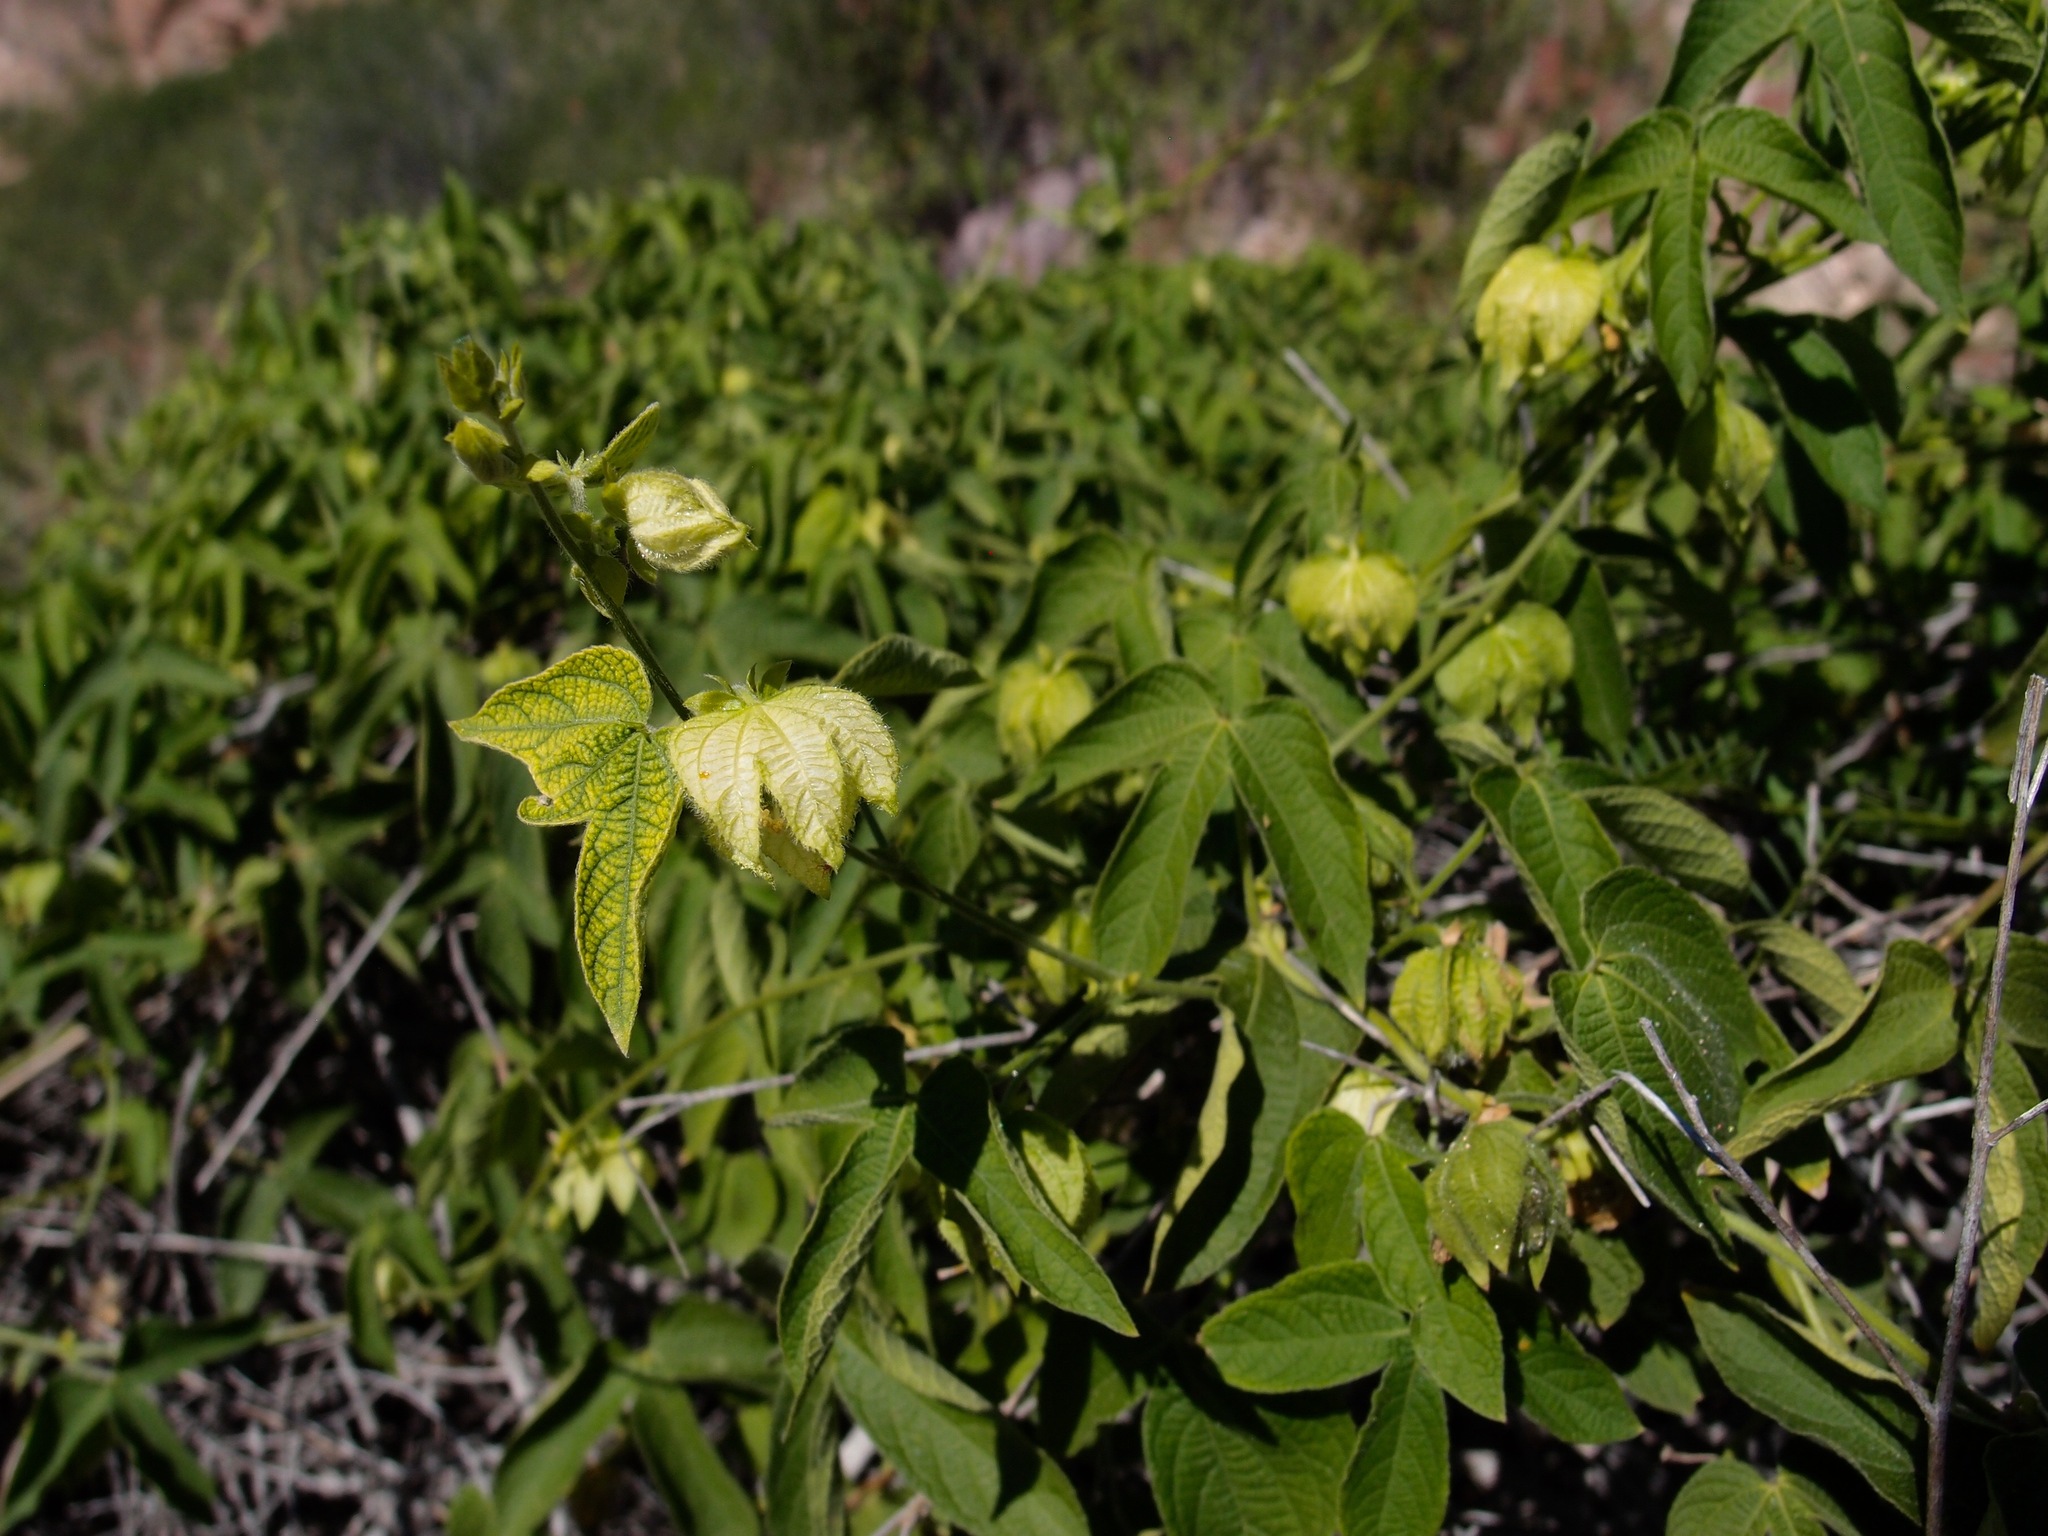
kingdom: Plantae
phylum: Tracheophyta
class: Magnoliopsida
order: Malpighiales
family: Euphorbiaceae
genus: Dalechampia
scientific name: Dalechampia scandens
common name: Spurgecreeper
